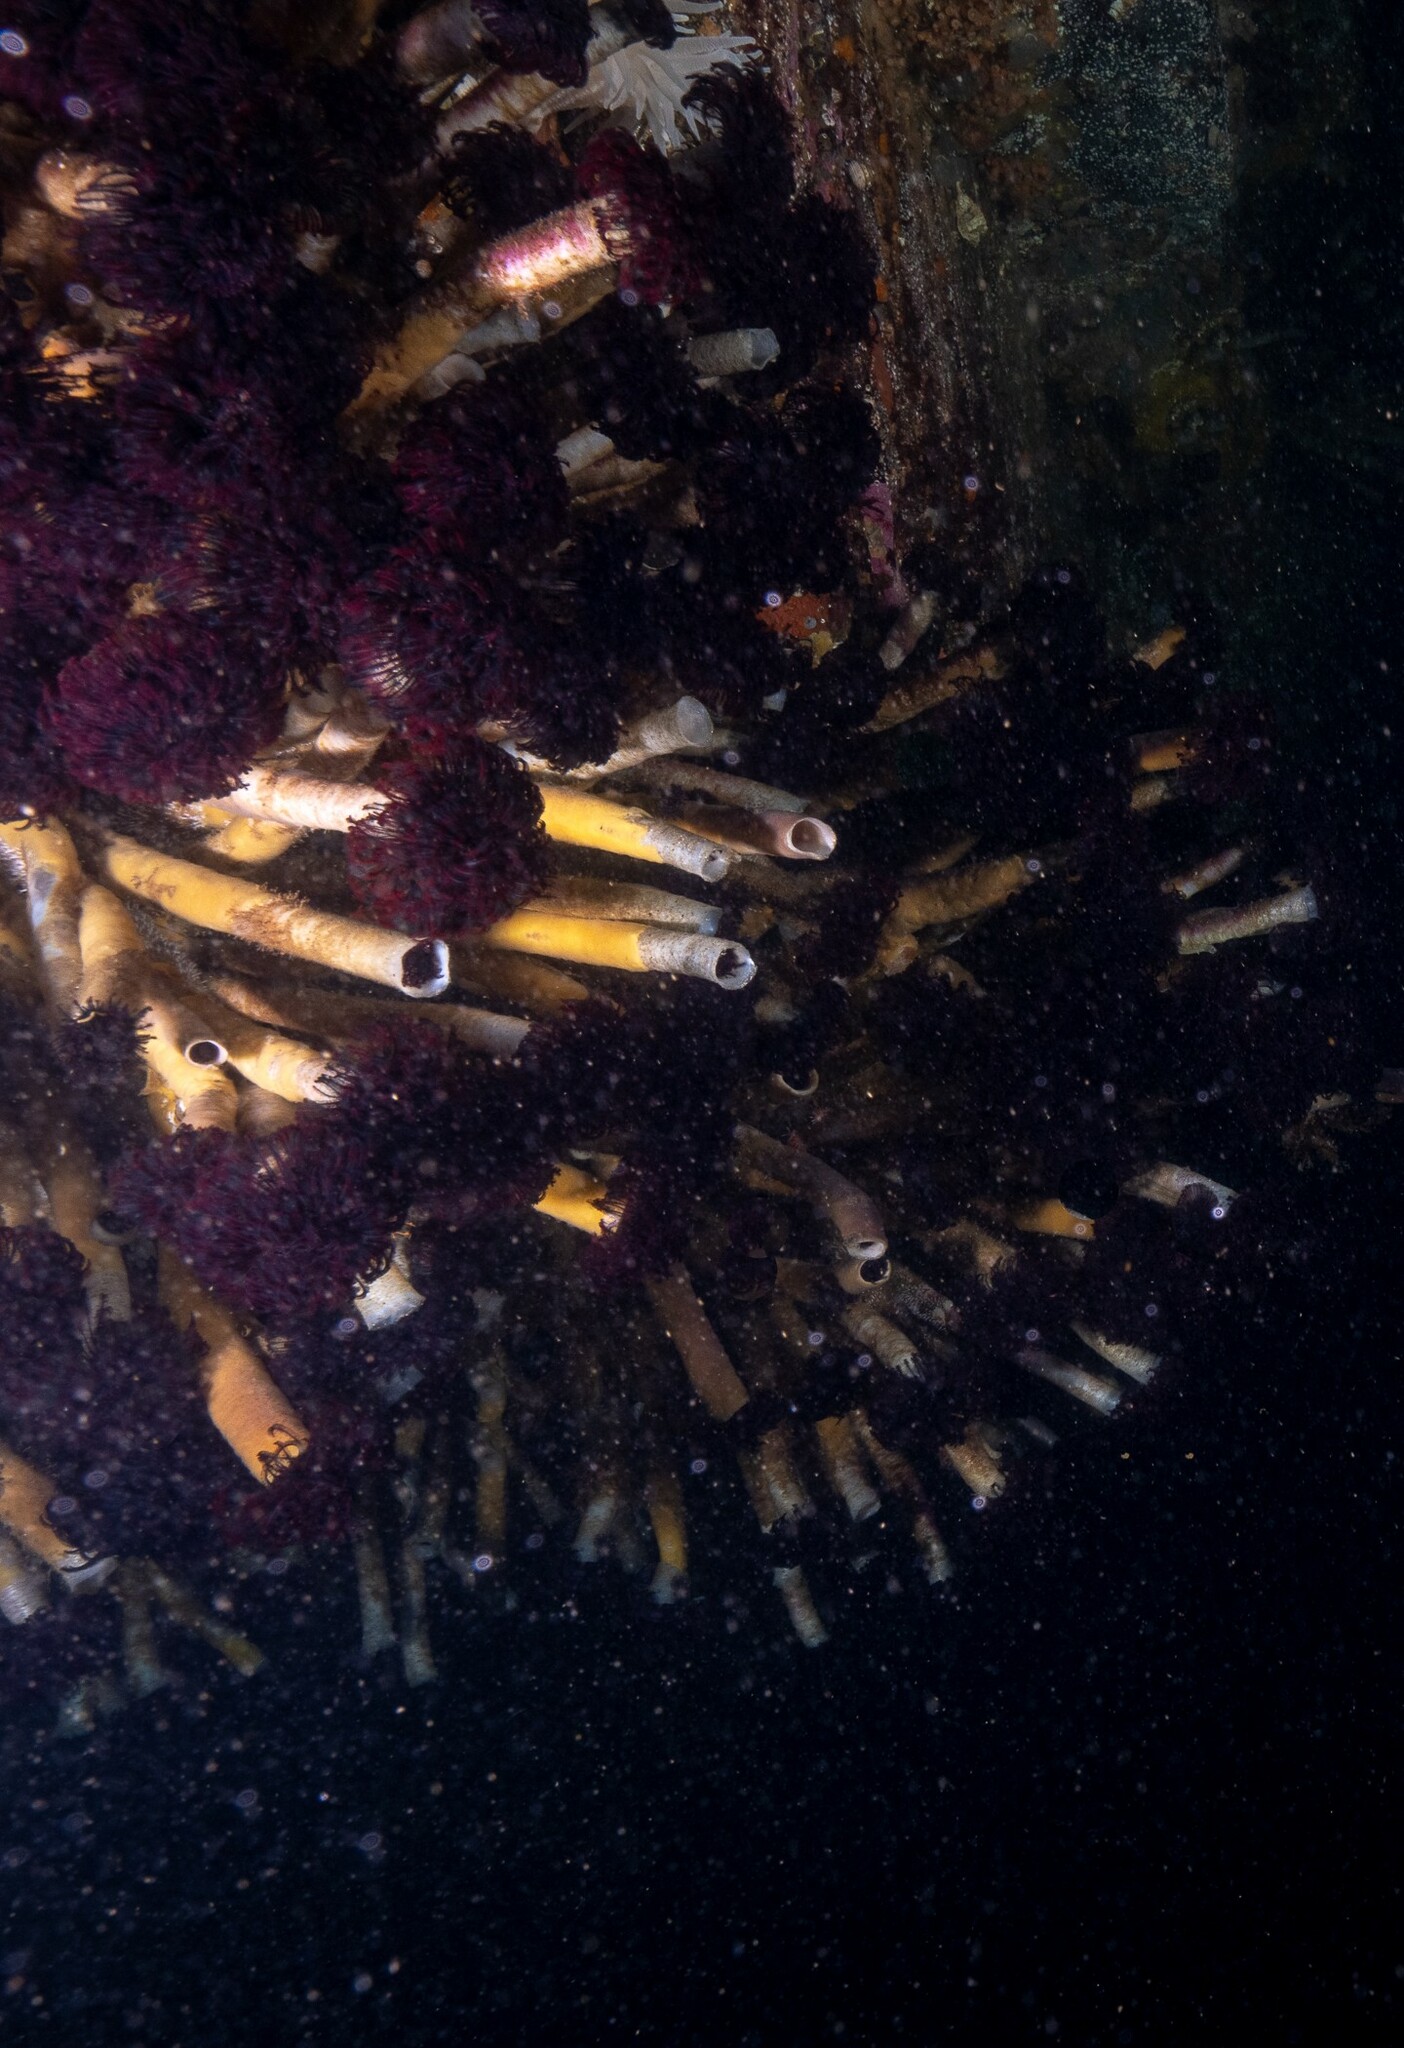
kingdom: Animalia
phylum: Annelida
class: Polychaeta
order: Sabellida
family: Sabellidae
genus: Eudistylia
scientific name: Eudistylia vancouveri
